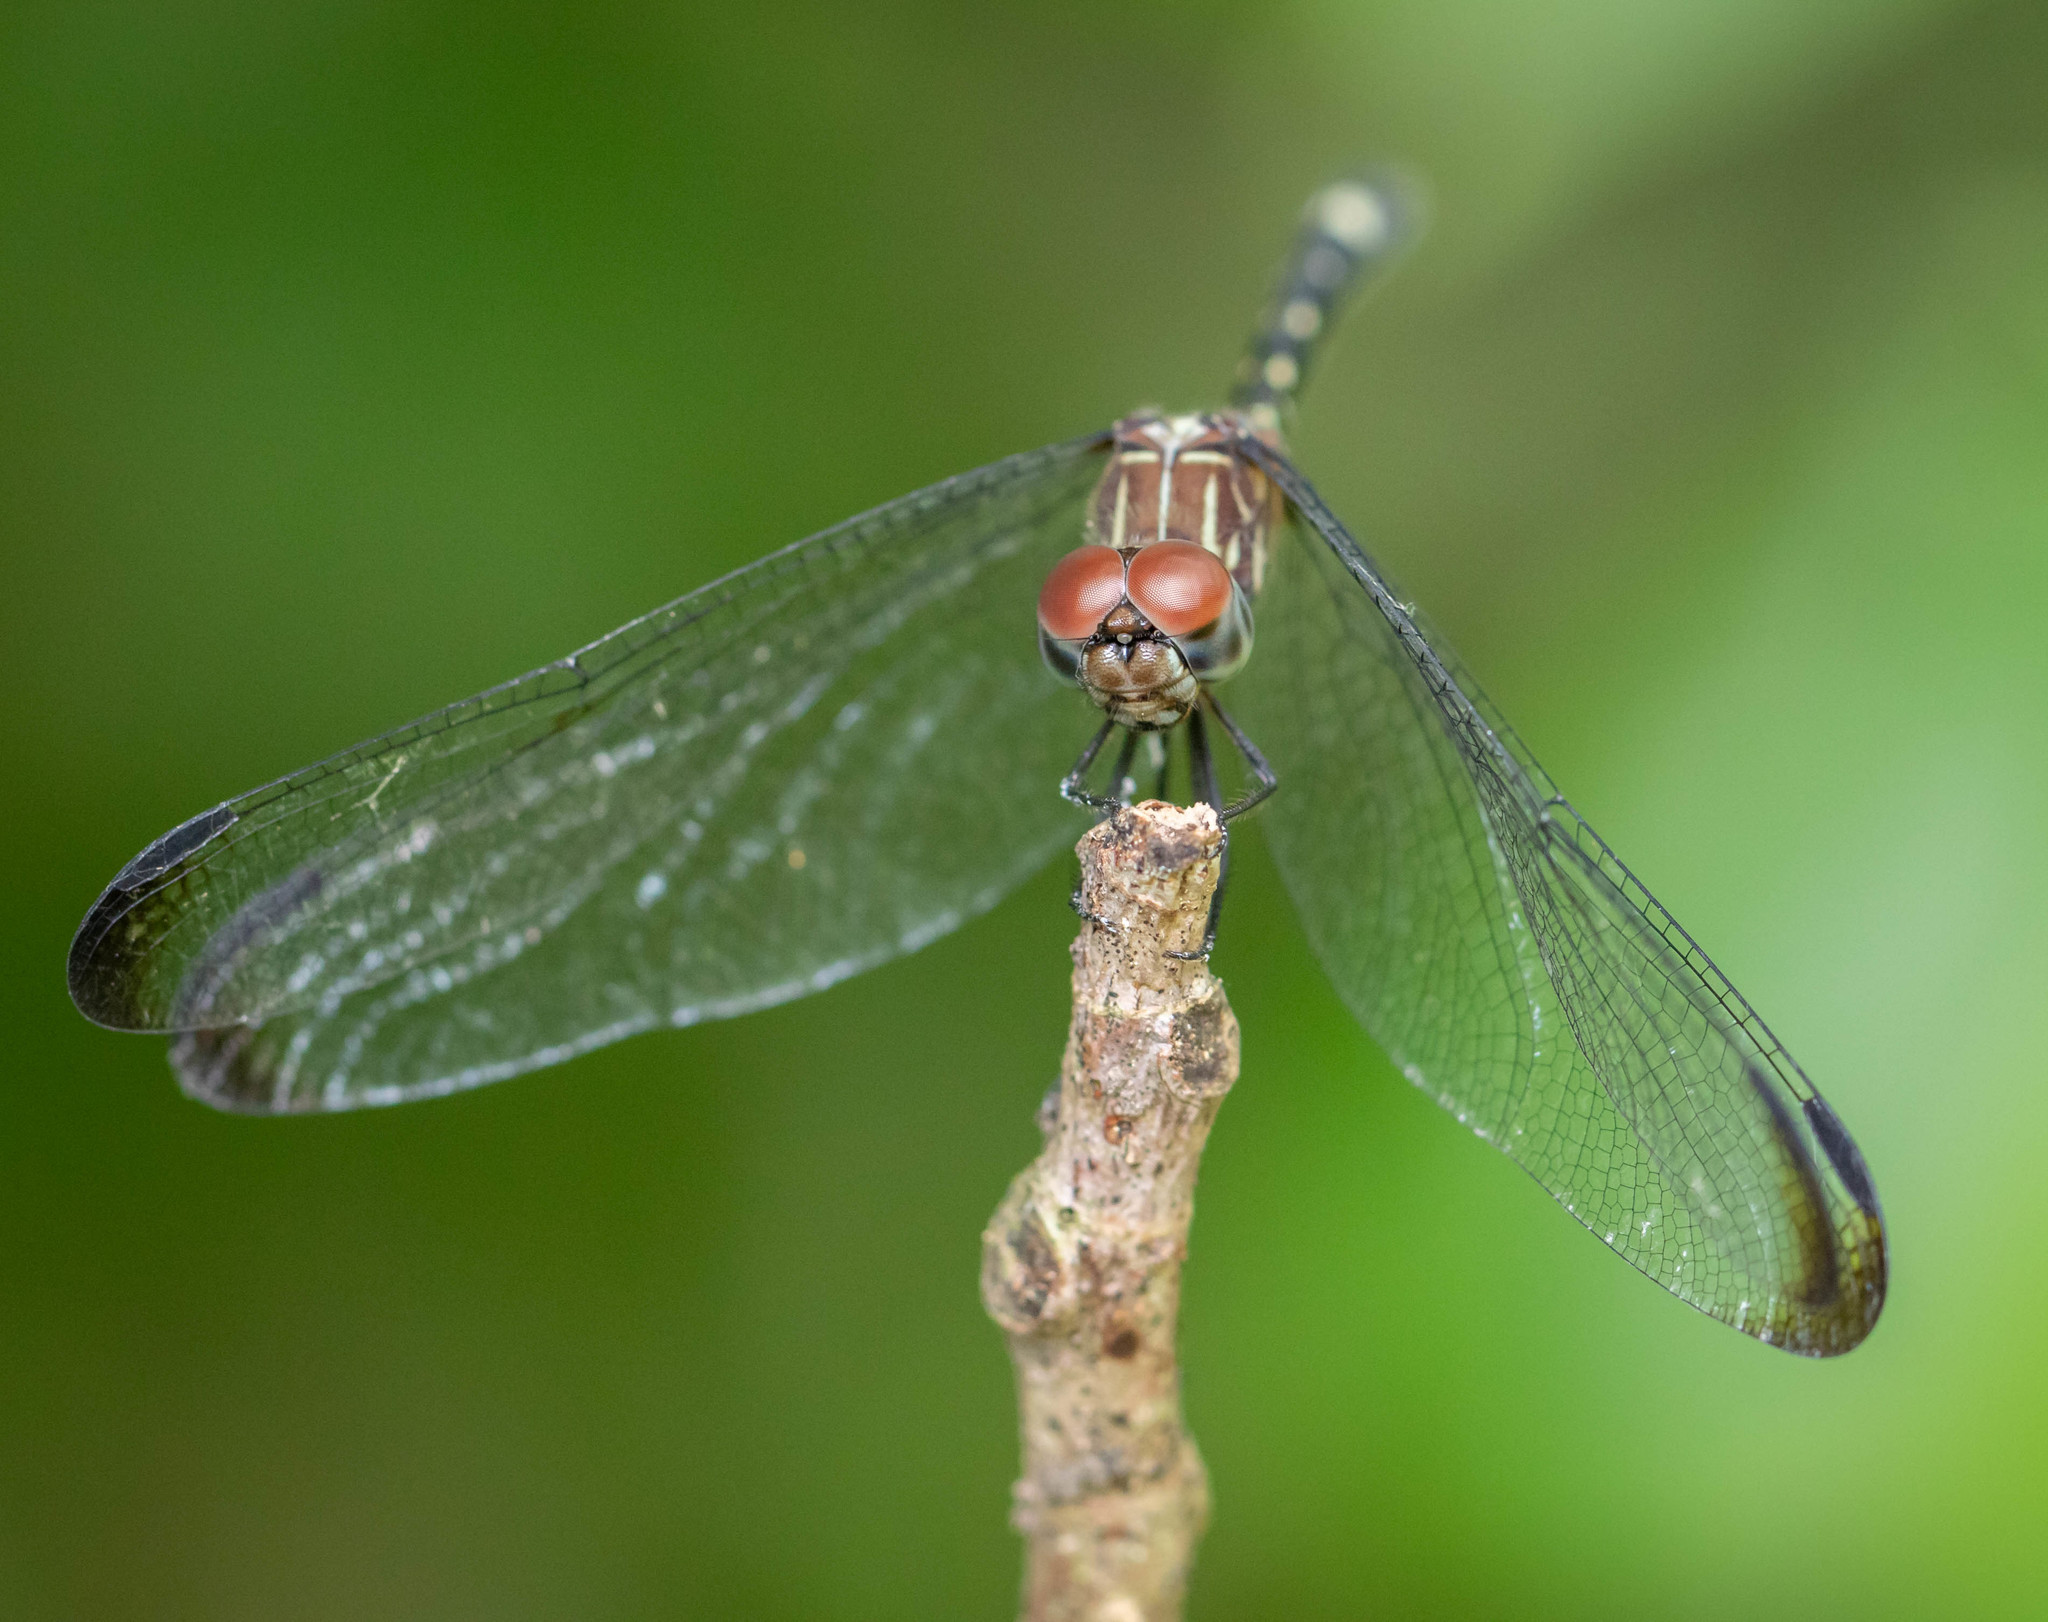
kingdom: Animalia
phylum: Arthropoda
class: Insecta
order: Odonata
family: Libellulidae
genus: Dythemis
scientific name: Dythemis velox
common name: Swift setwing
